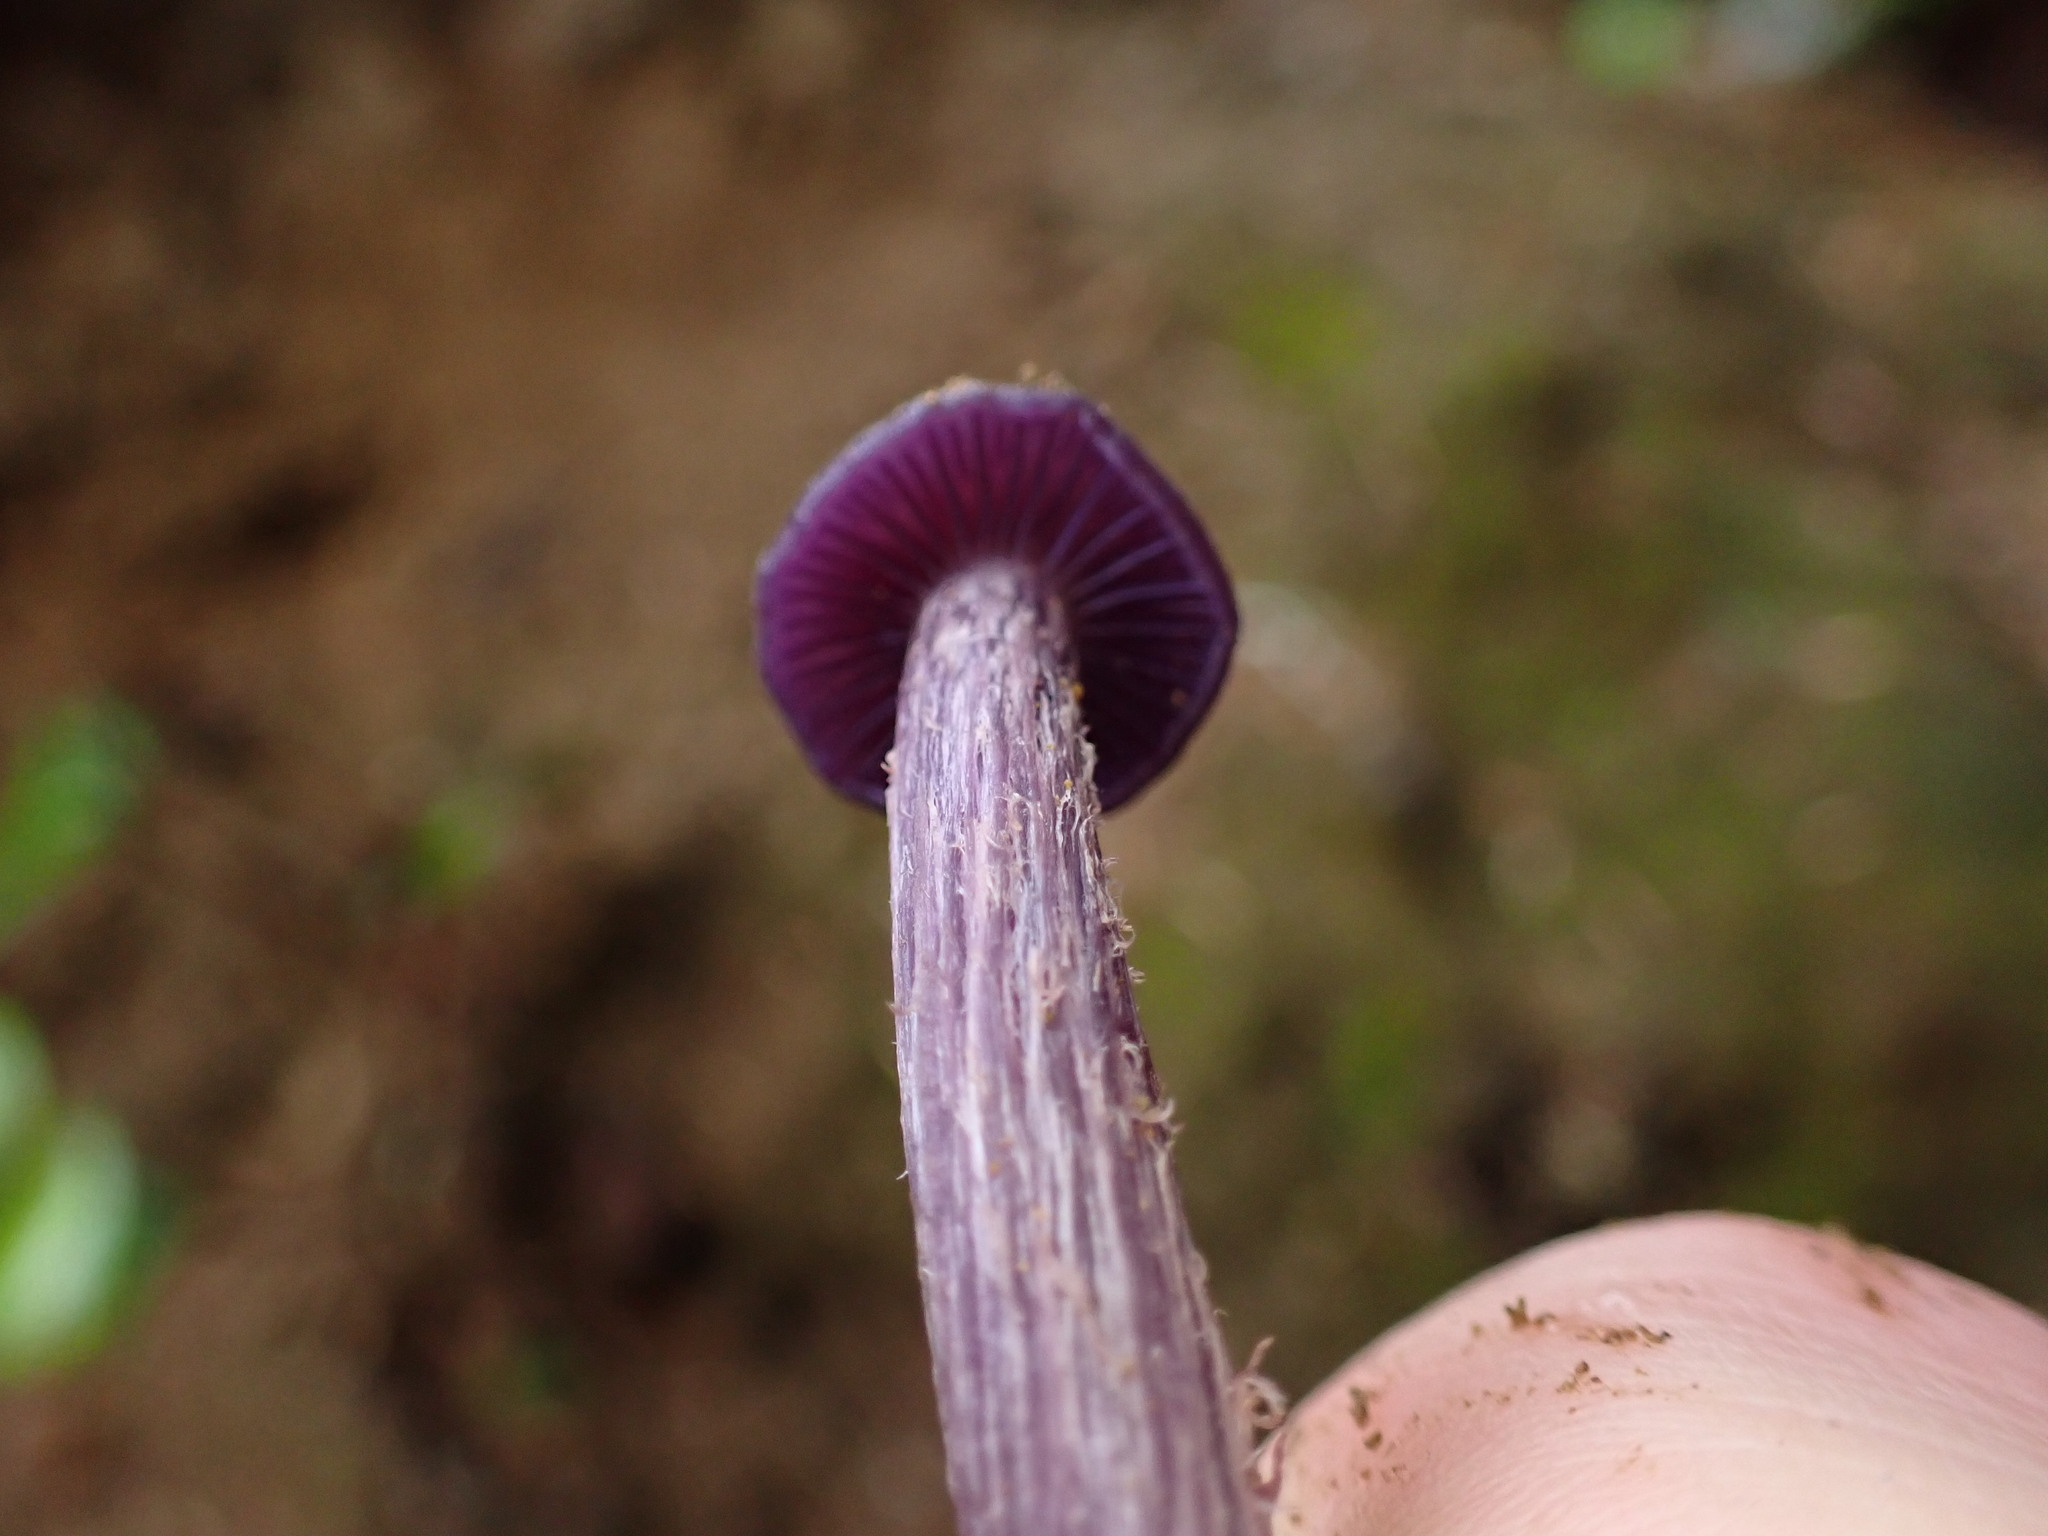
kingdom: Fungi
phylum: Basidiomycota
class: Agaricomycetes
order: Agaricales
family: Hydnangiaceae
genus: Laccaria
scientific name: Laccaria amethysteo-occidentalis
